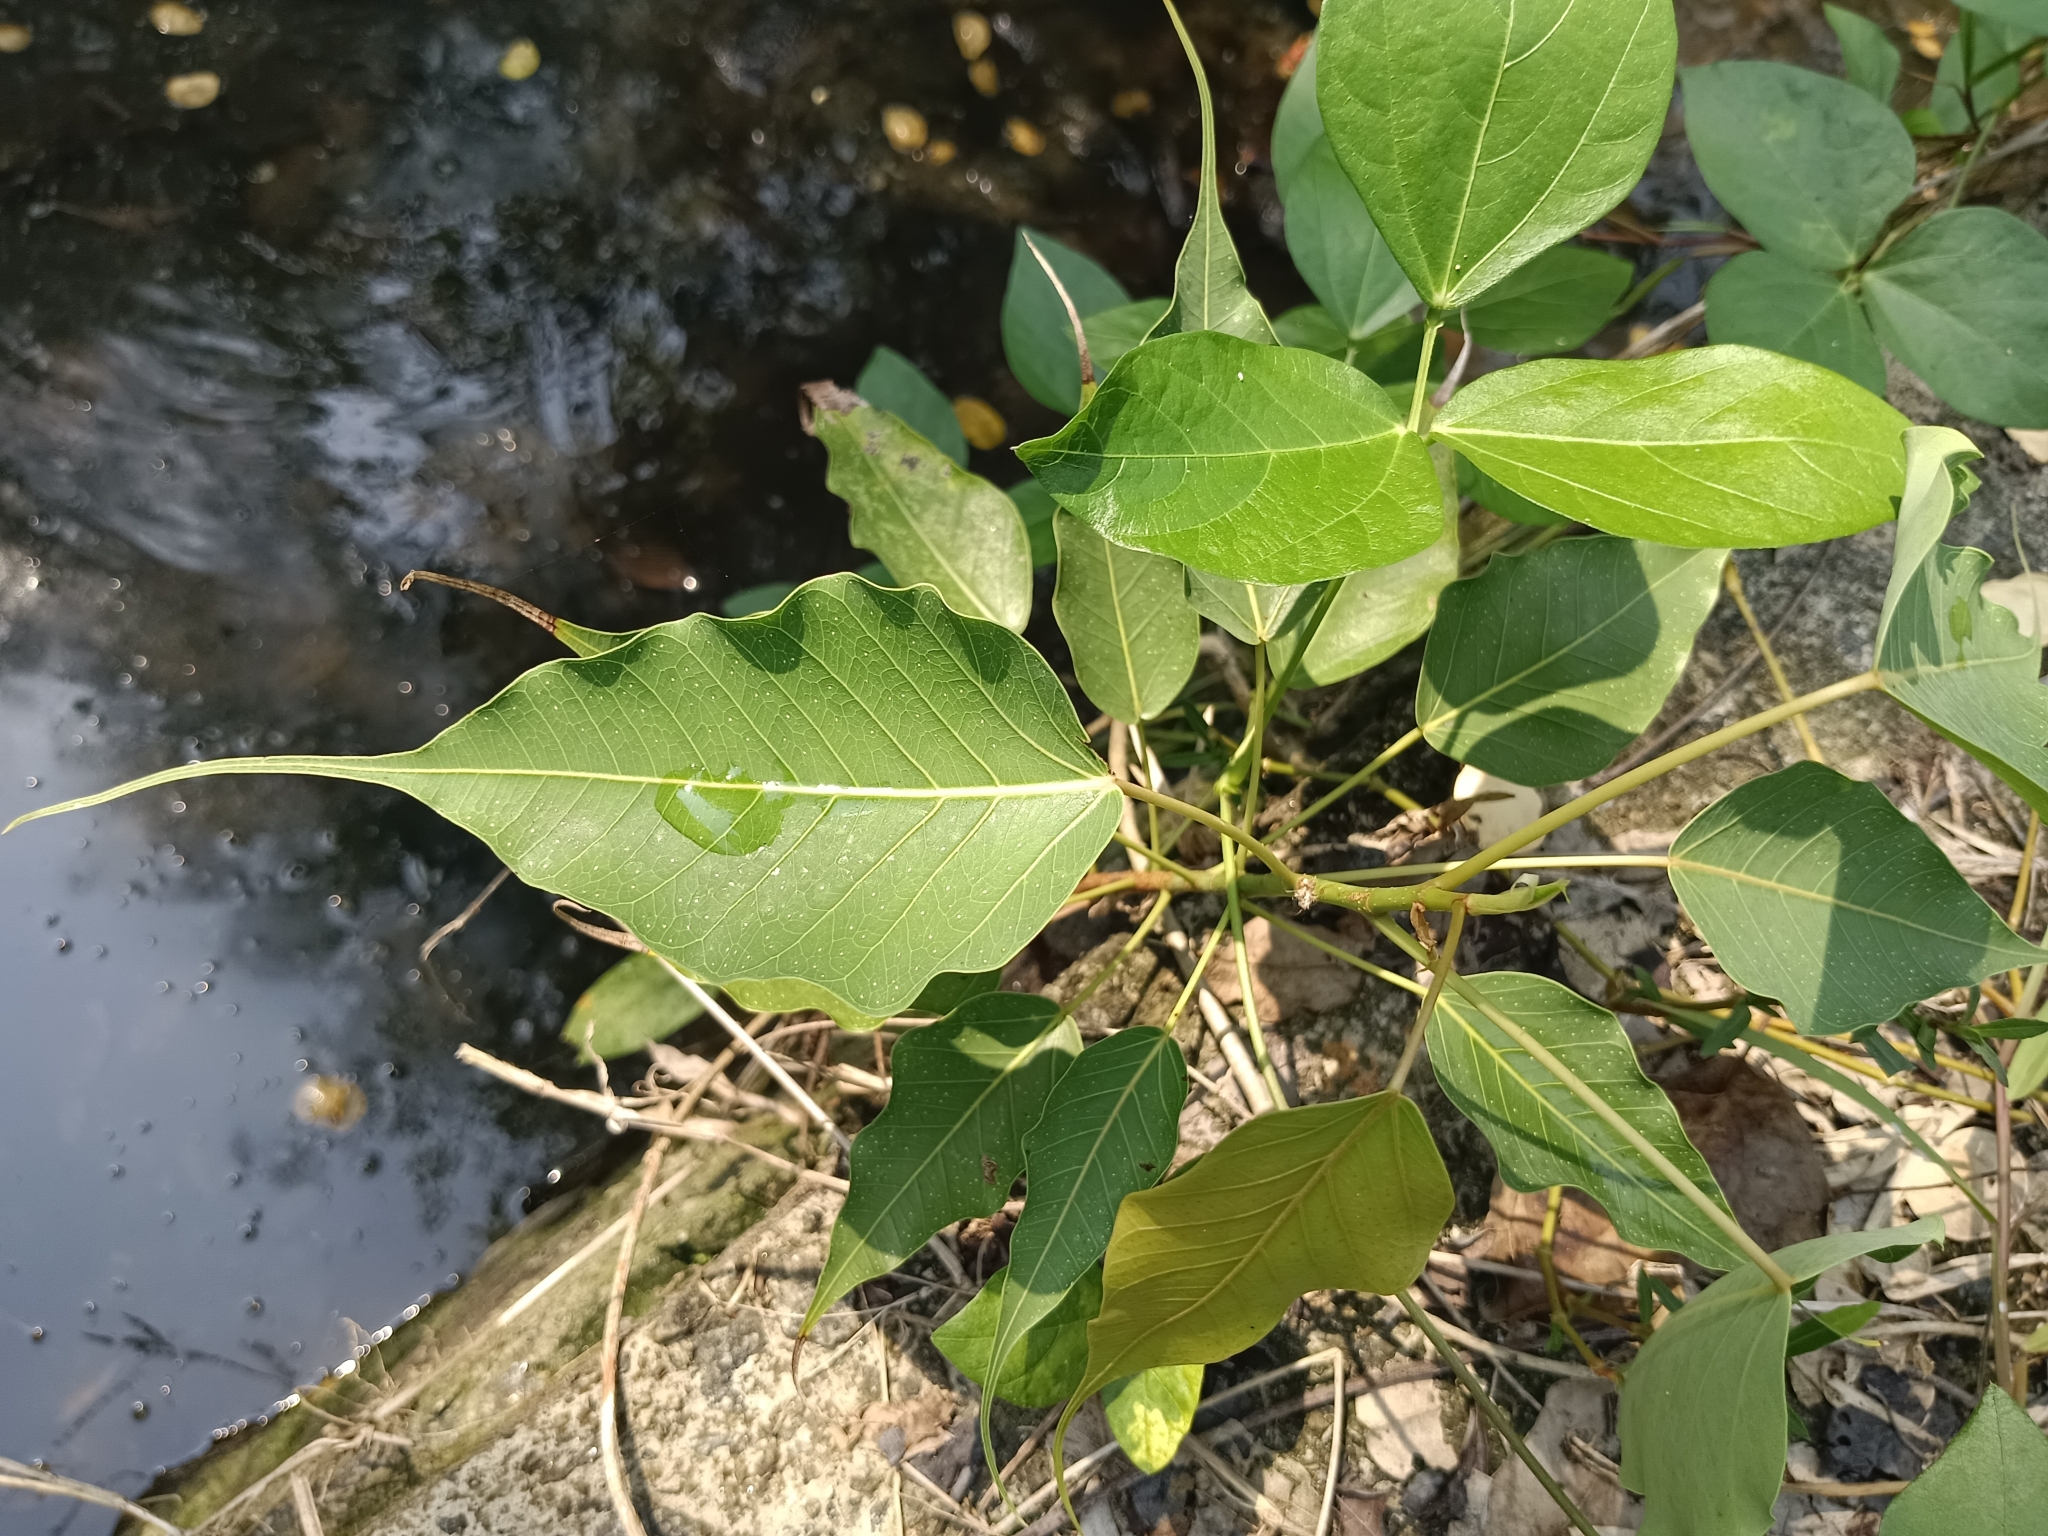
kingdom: Plantae
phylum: Tracheophyta
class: Magnoliopsida
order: Rosales
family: Moraceae
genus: Ficus
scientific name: Ficus religiosa
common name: Bodhi tree
